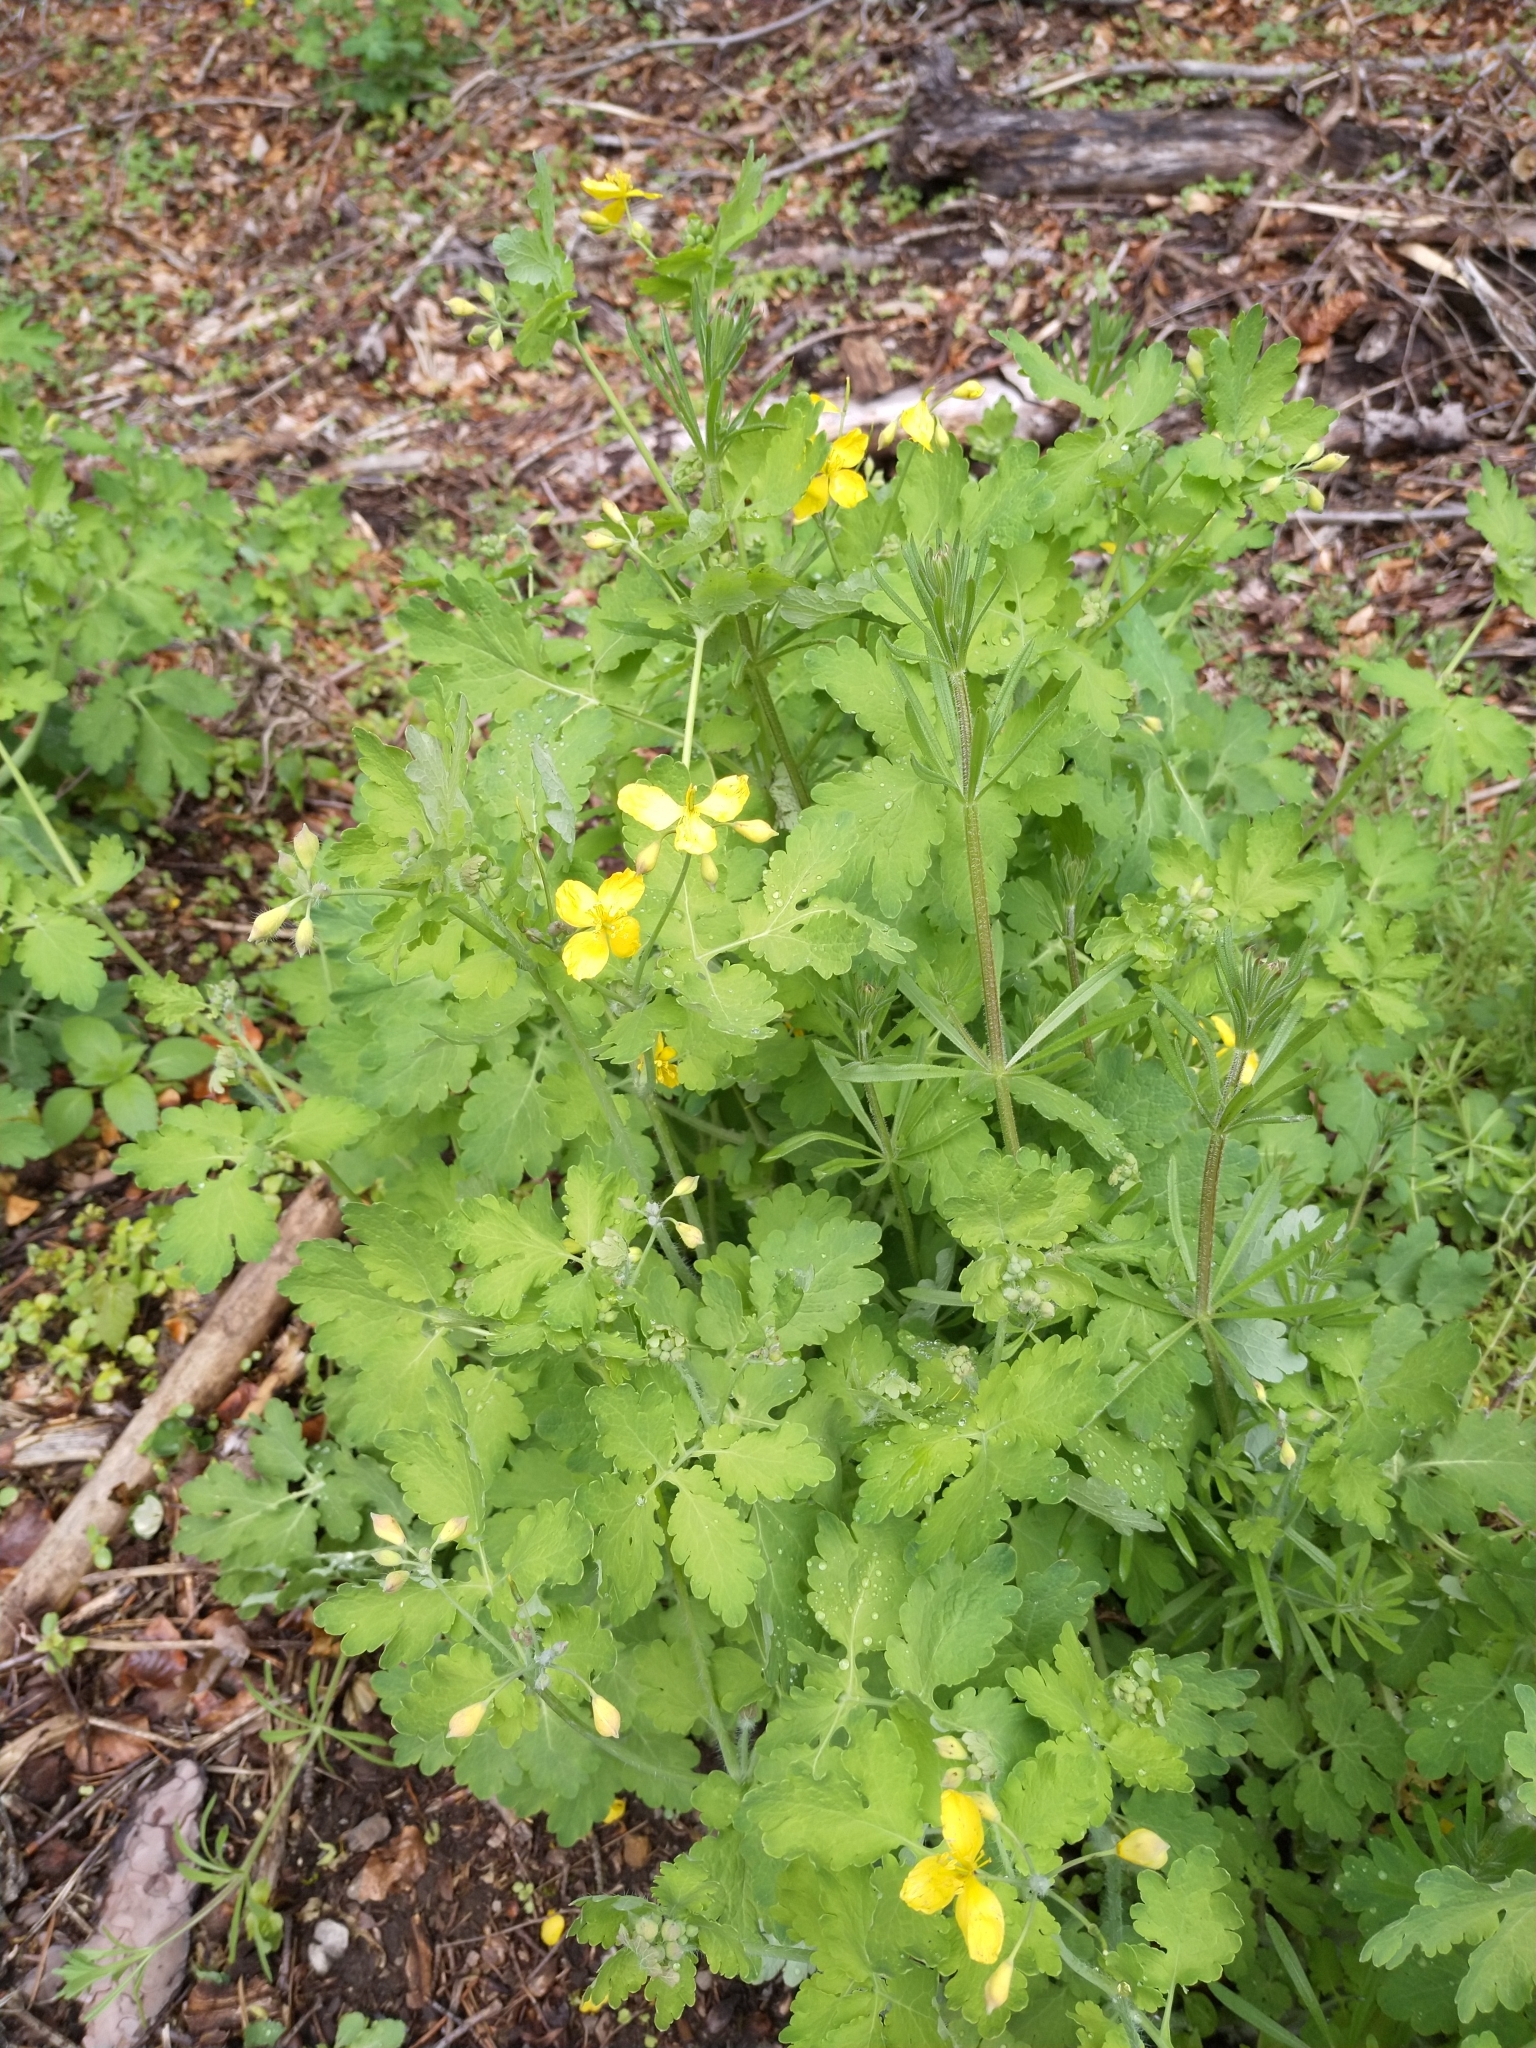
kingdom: Plantae
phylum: Tracheophyta
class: Magnoliopsida
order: Ranunculales
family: Papaveraceae
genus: Chelidonium
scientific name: Chelidonium majus
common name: Greater celandine
